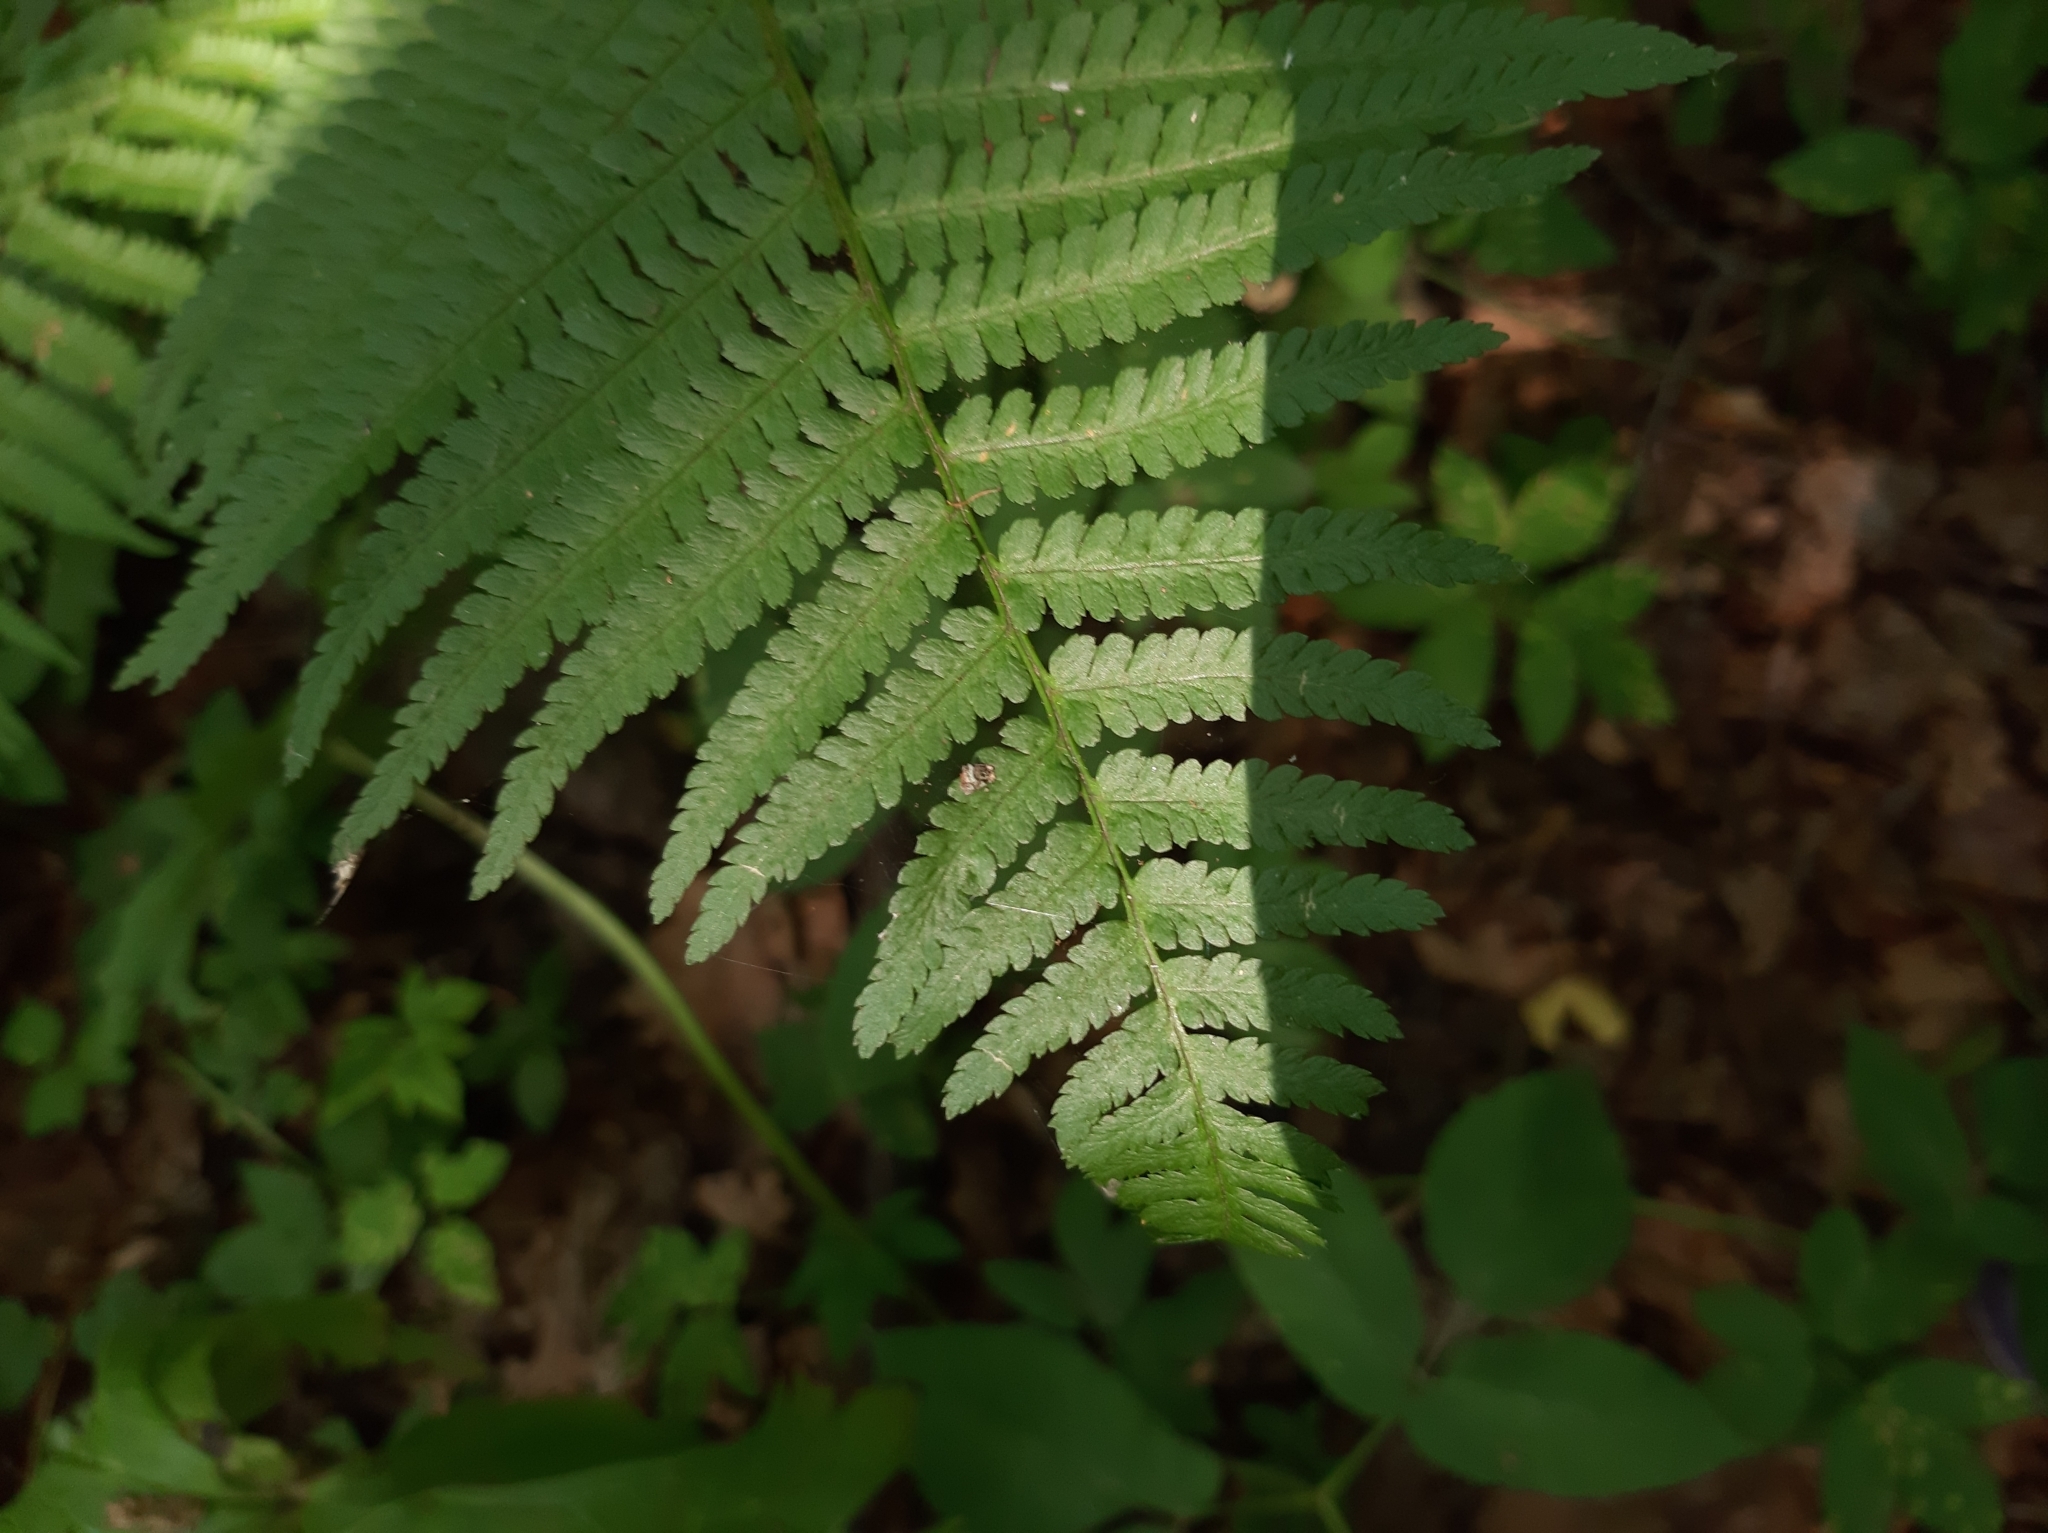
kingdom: Plantae
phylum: Tracheophyta
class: Polypodiopsida
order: Polypodiales
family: Dryopteridaceae
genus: Dryopteris
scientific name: Dryopteris filix-mas
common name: Male fern
